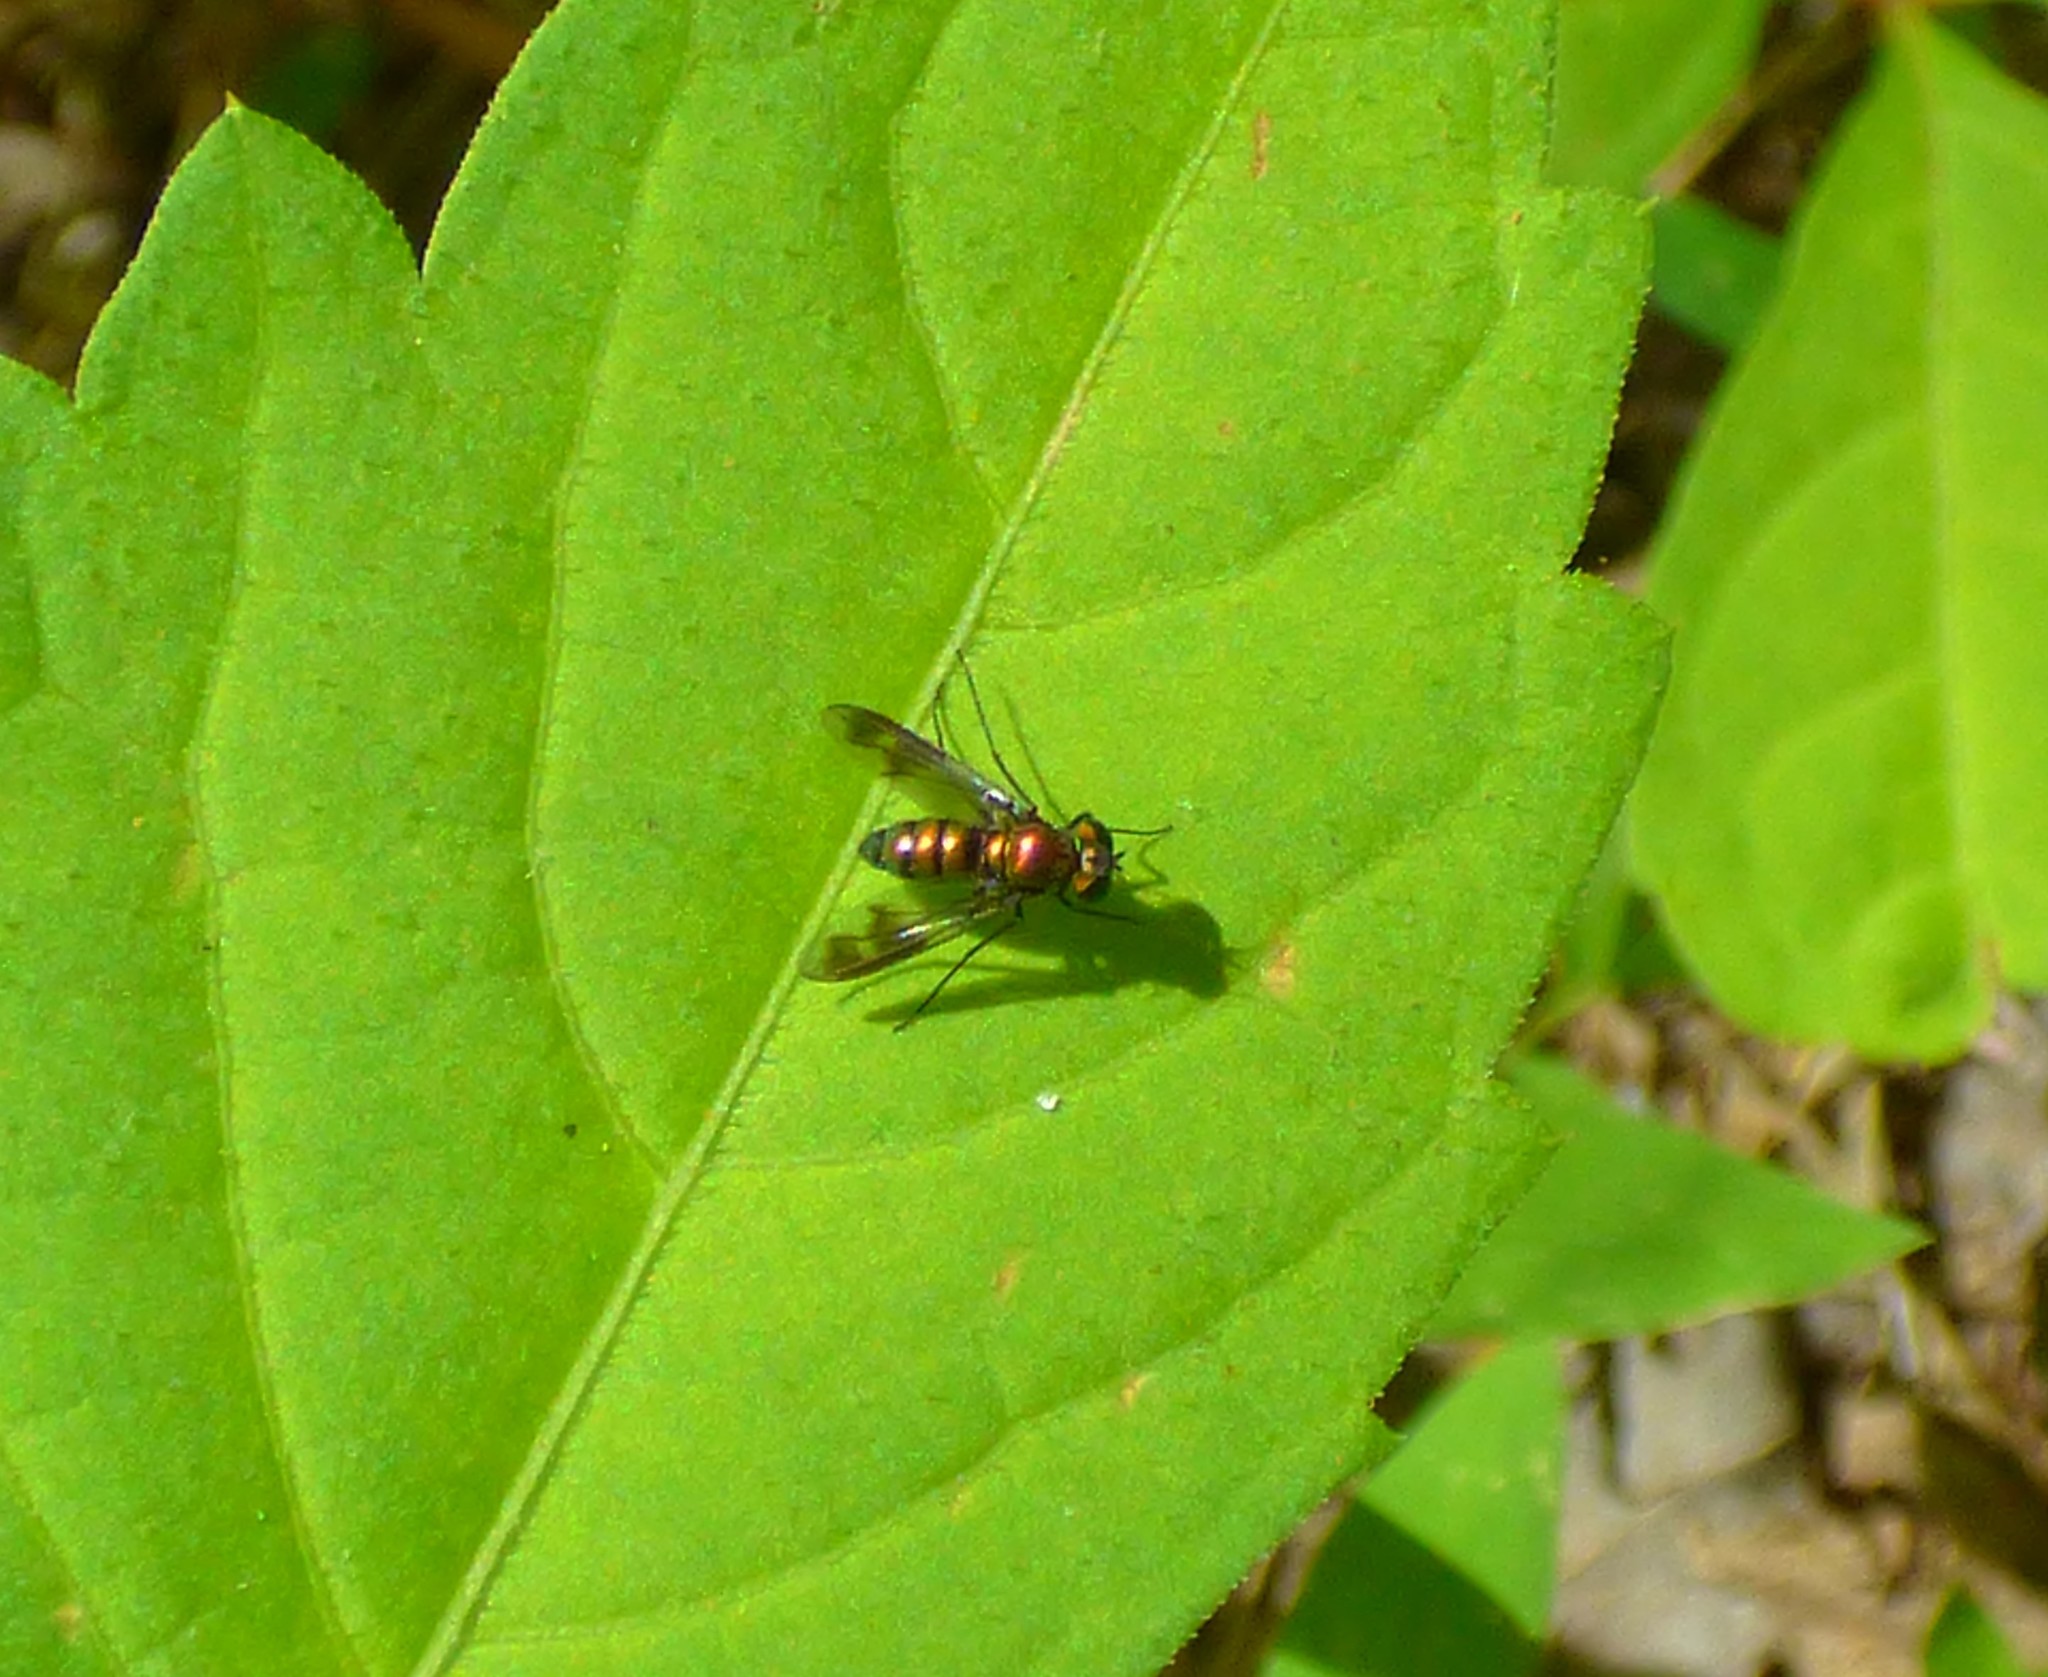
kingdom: Animalia
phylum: Arthropoda
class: Insecta
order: Diptera
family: Dolichopodidae
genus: Condylostylus
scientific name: Condylostylus patibulatus
